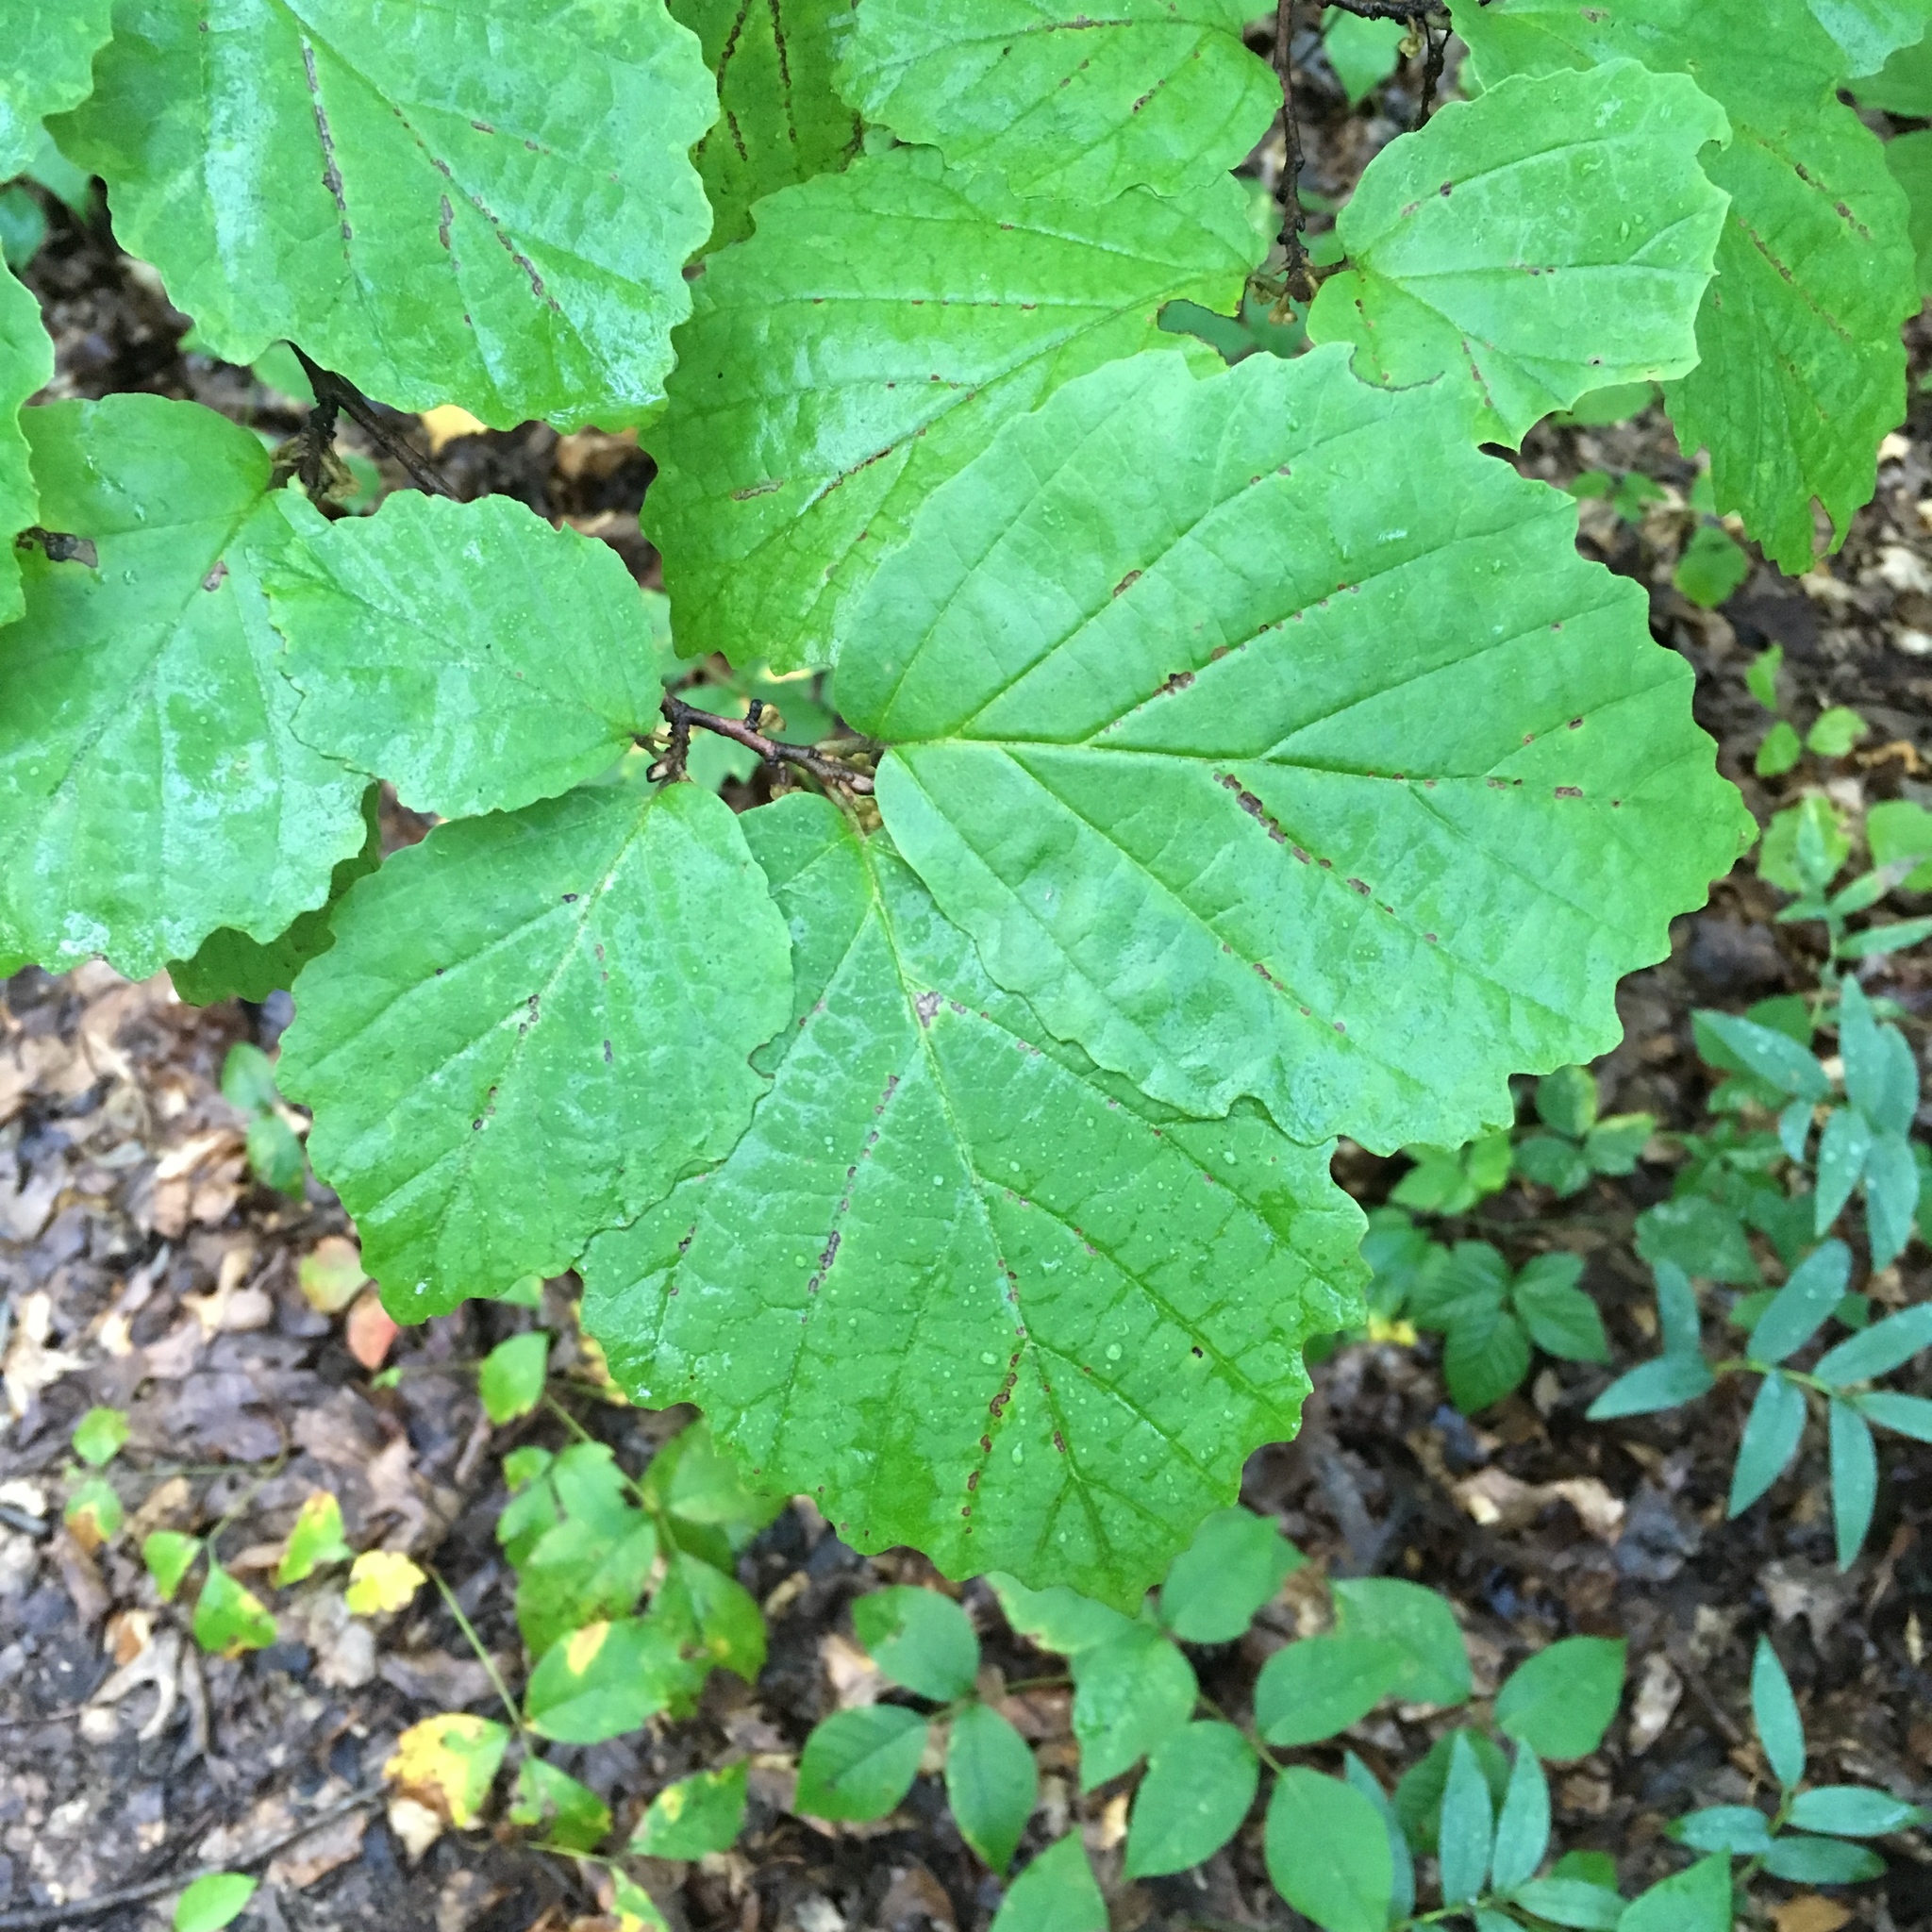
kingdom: Plantae
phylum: Tracheophyta
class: Magnoliopsida
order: Saxifragales
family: Hamamelidaceae
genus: Hamamelis
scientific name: Hamamelis virginiana
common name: Witch-hazel
